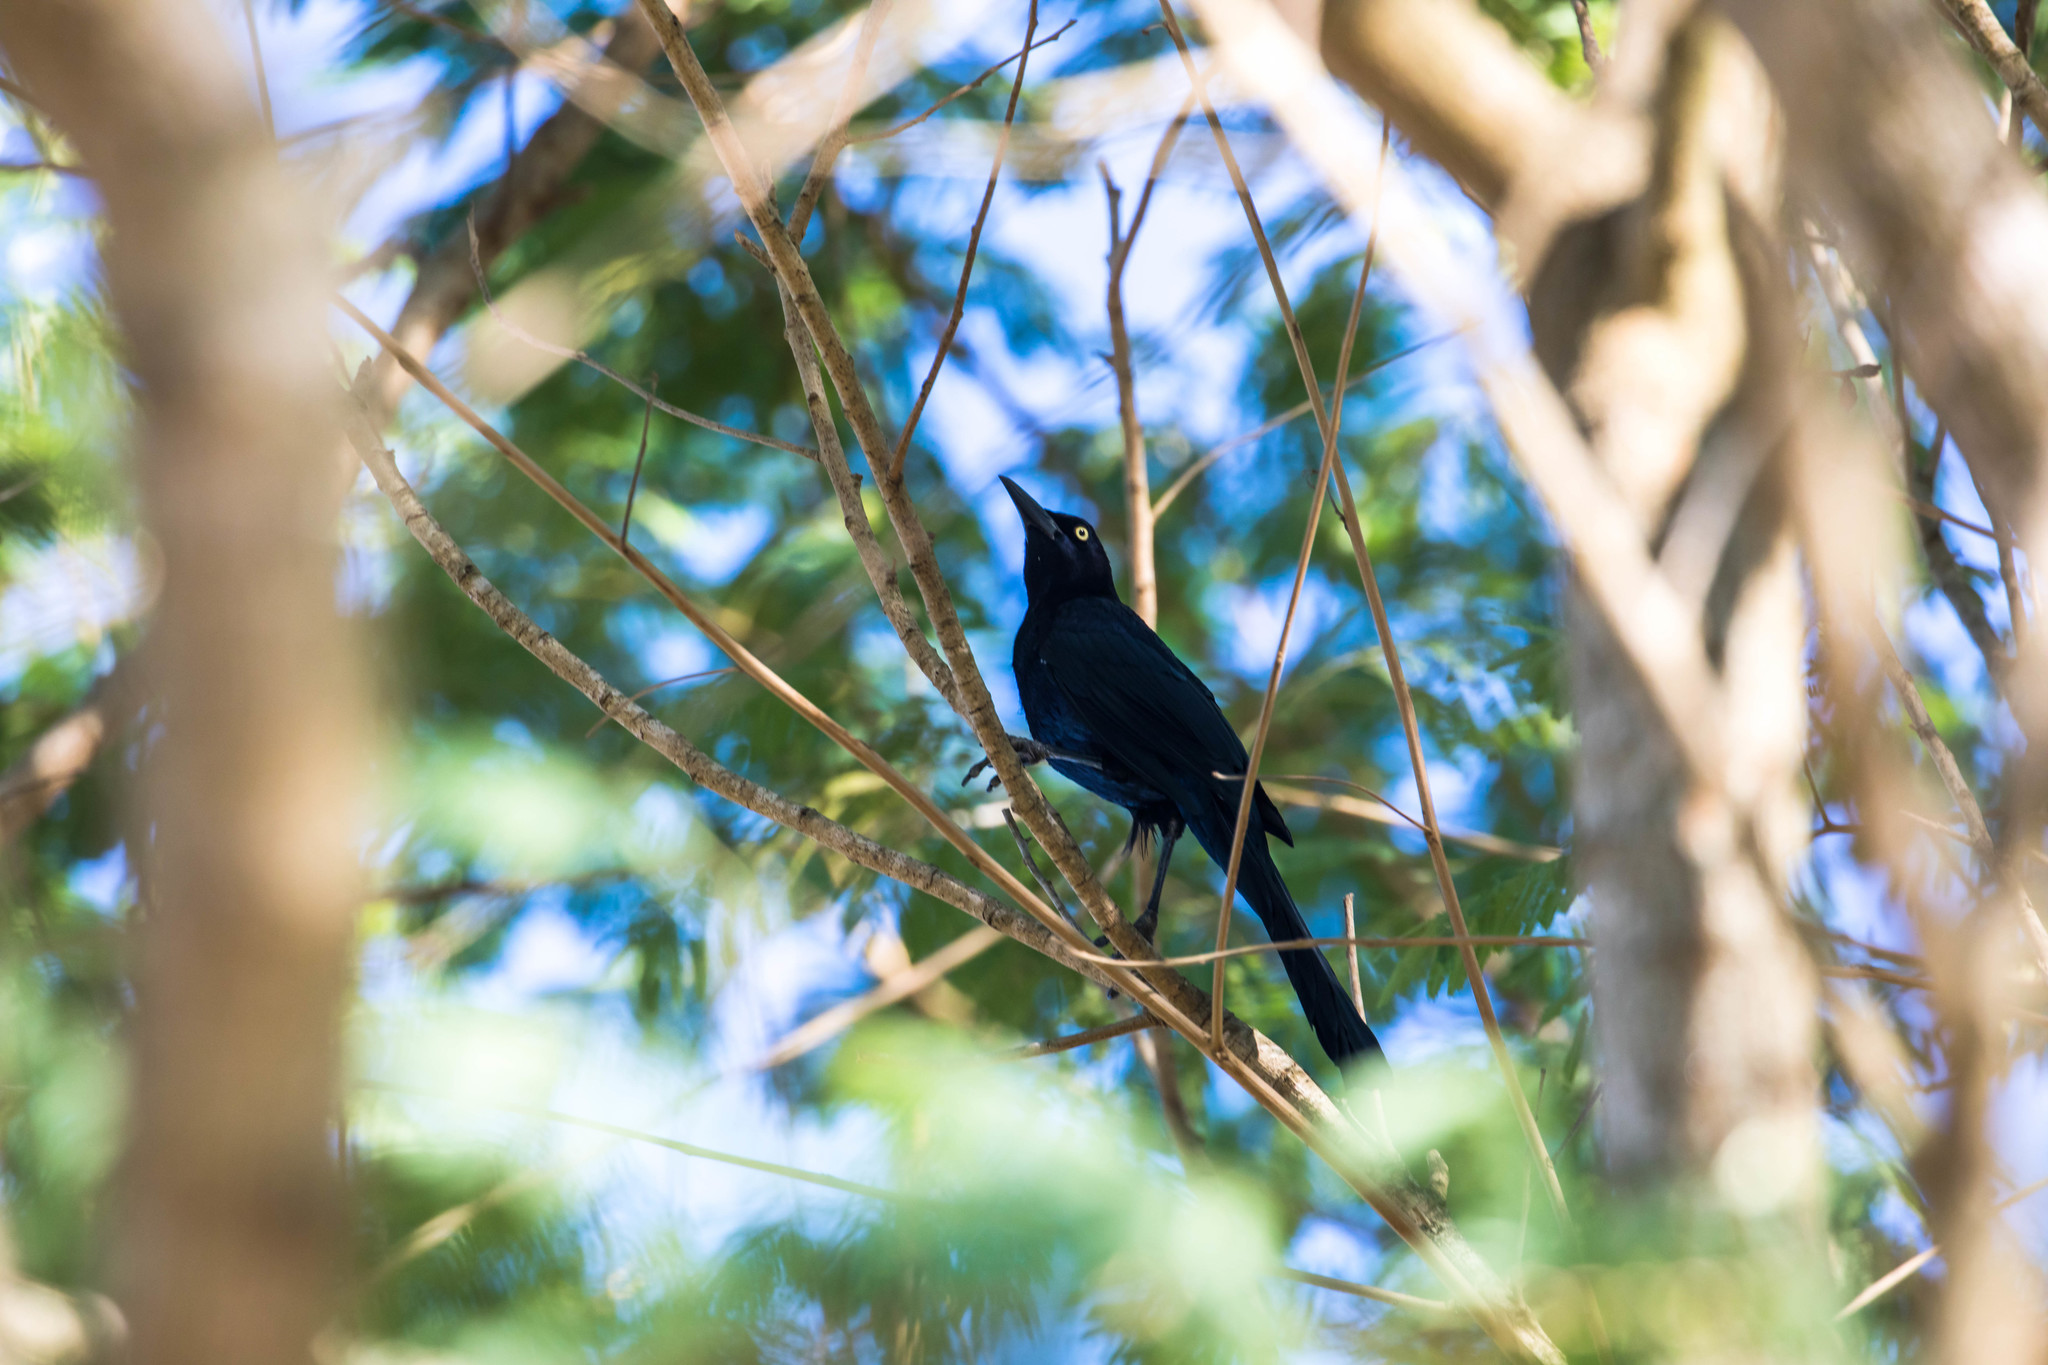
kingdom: Animalia
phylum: Chordata
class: Aves
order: Passeriformes
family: Icteridae
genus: Quiscalus
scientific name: Quiscalus mexicanus
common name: Great-tailed grackle
